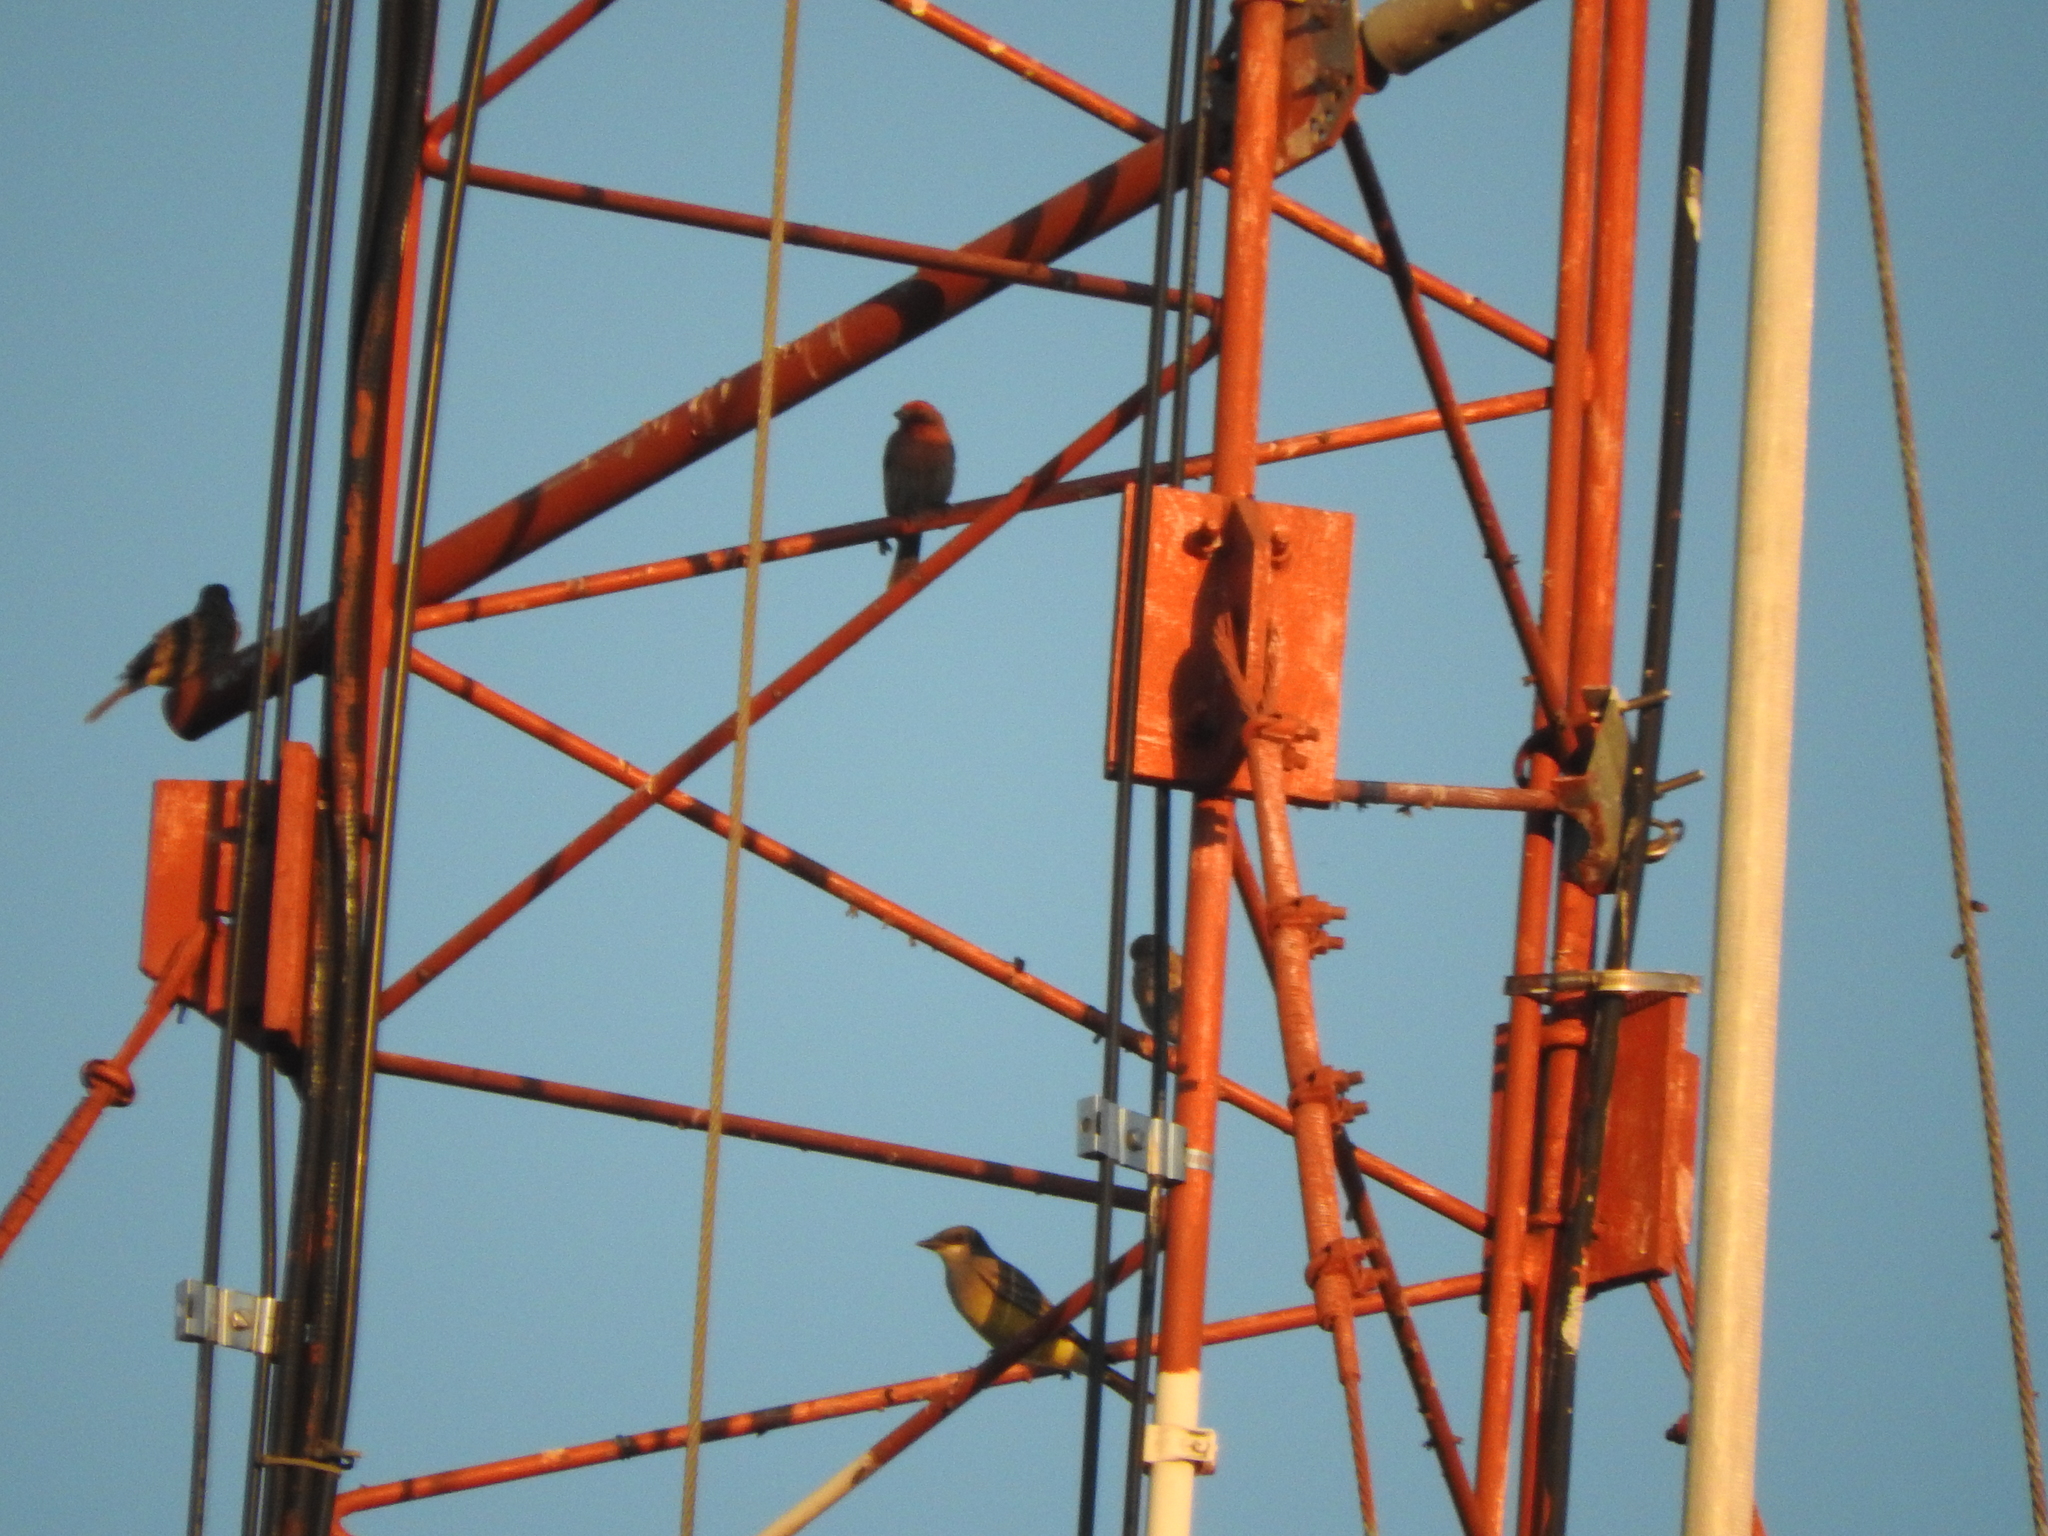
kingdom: Animalia
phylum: Chordata
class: Aves
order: Passeriformes
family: Fringillidae
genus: Haemorhous
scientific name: Haemorhous mexicanus
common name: House finch
